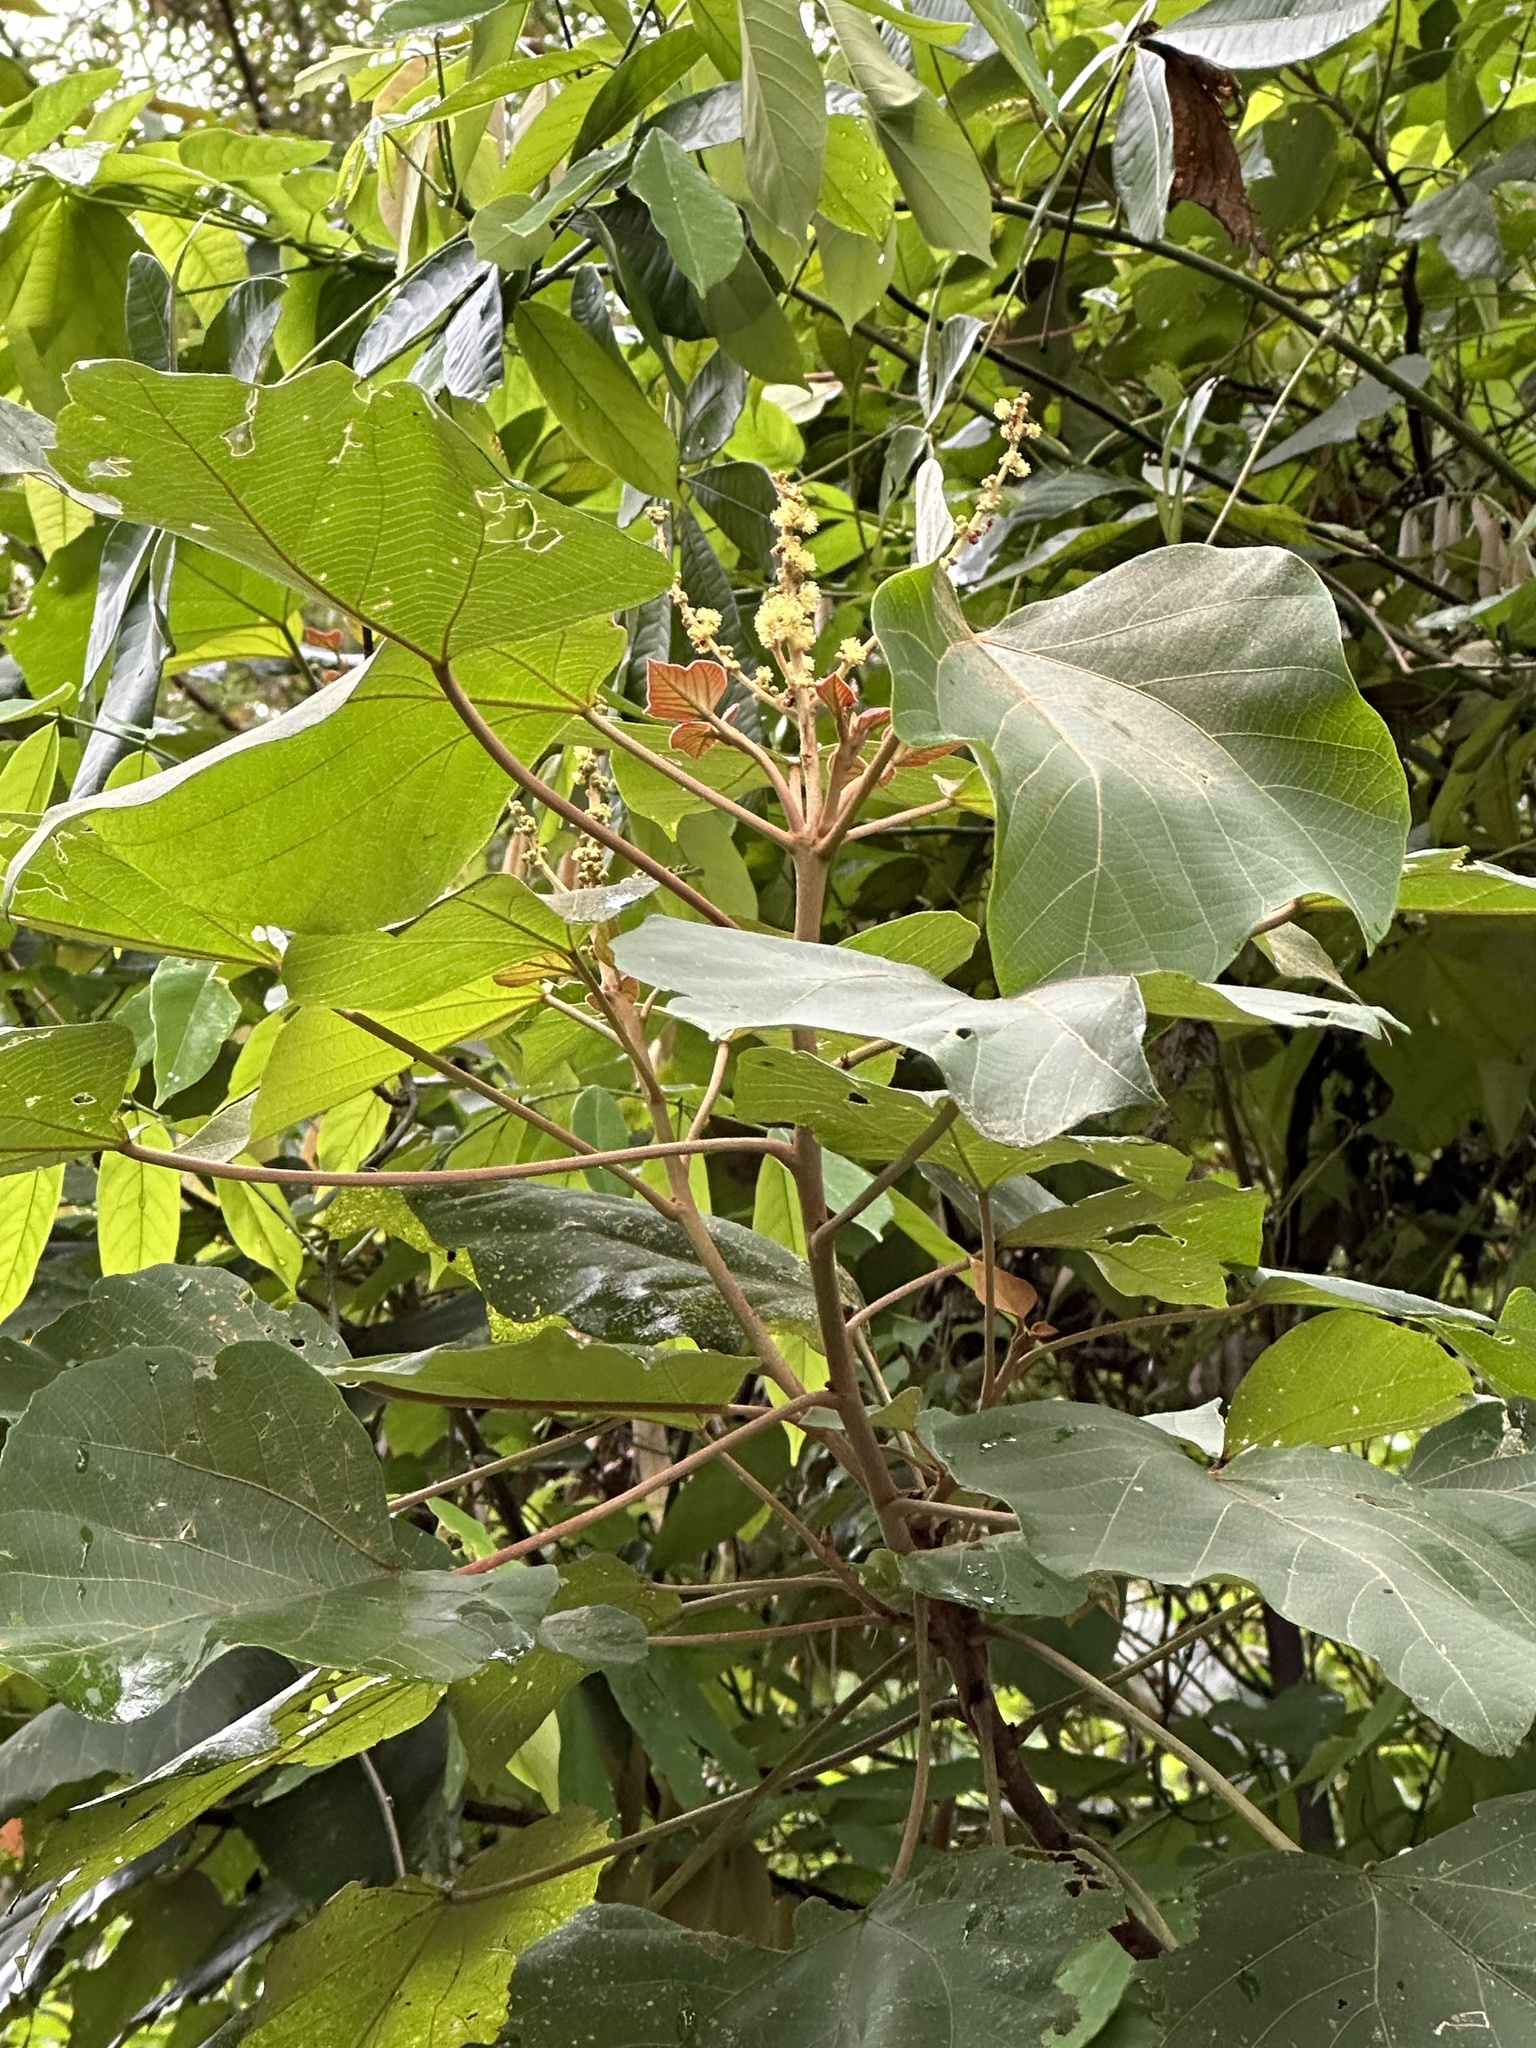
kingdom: Plantae
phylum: Tracheophyta
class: Magnoliopsida
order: Malpighiales
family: Euphorbiaceae
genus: Mallotus
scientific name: Mallotus japonicus
